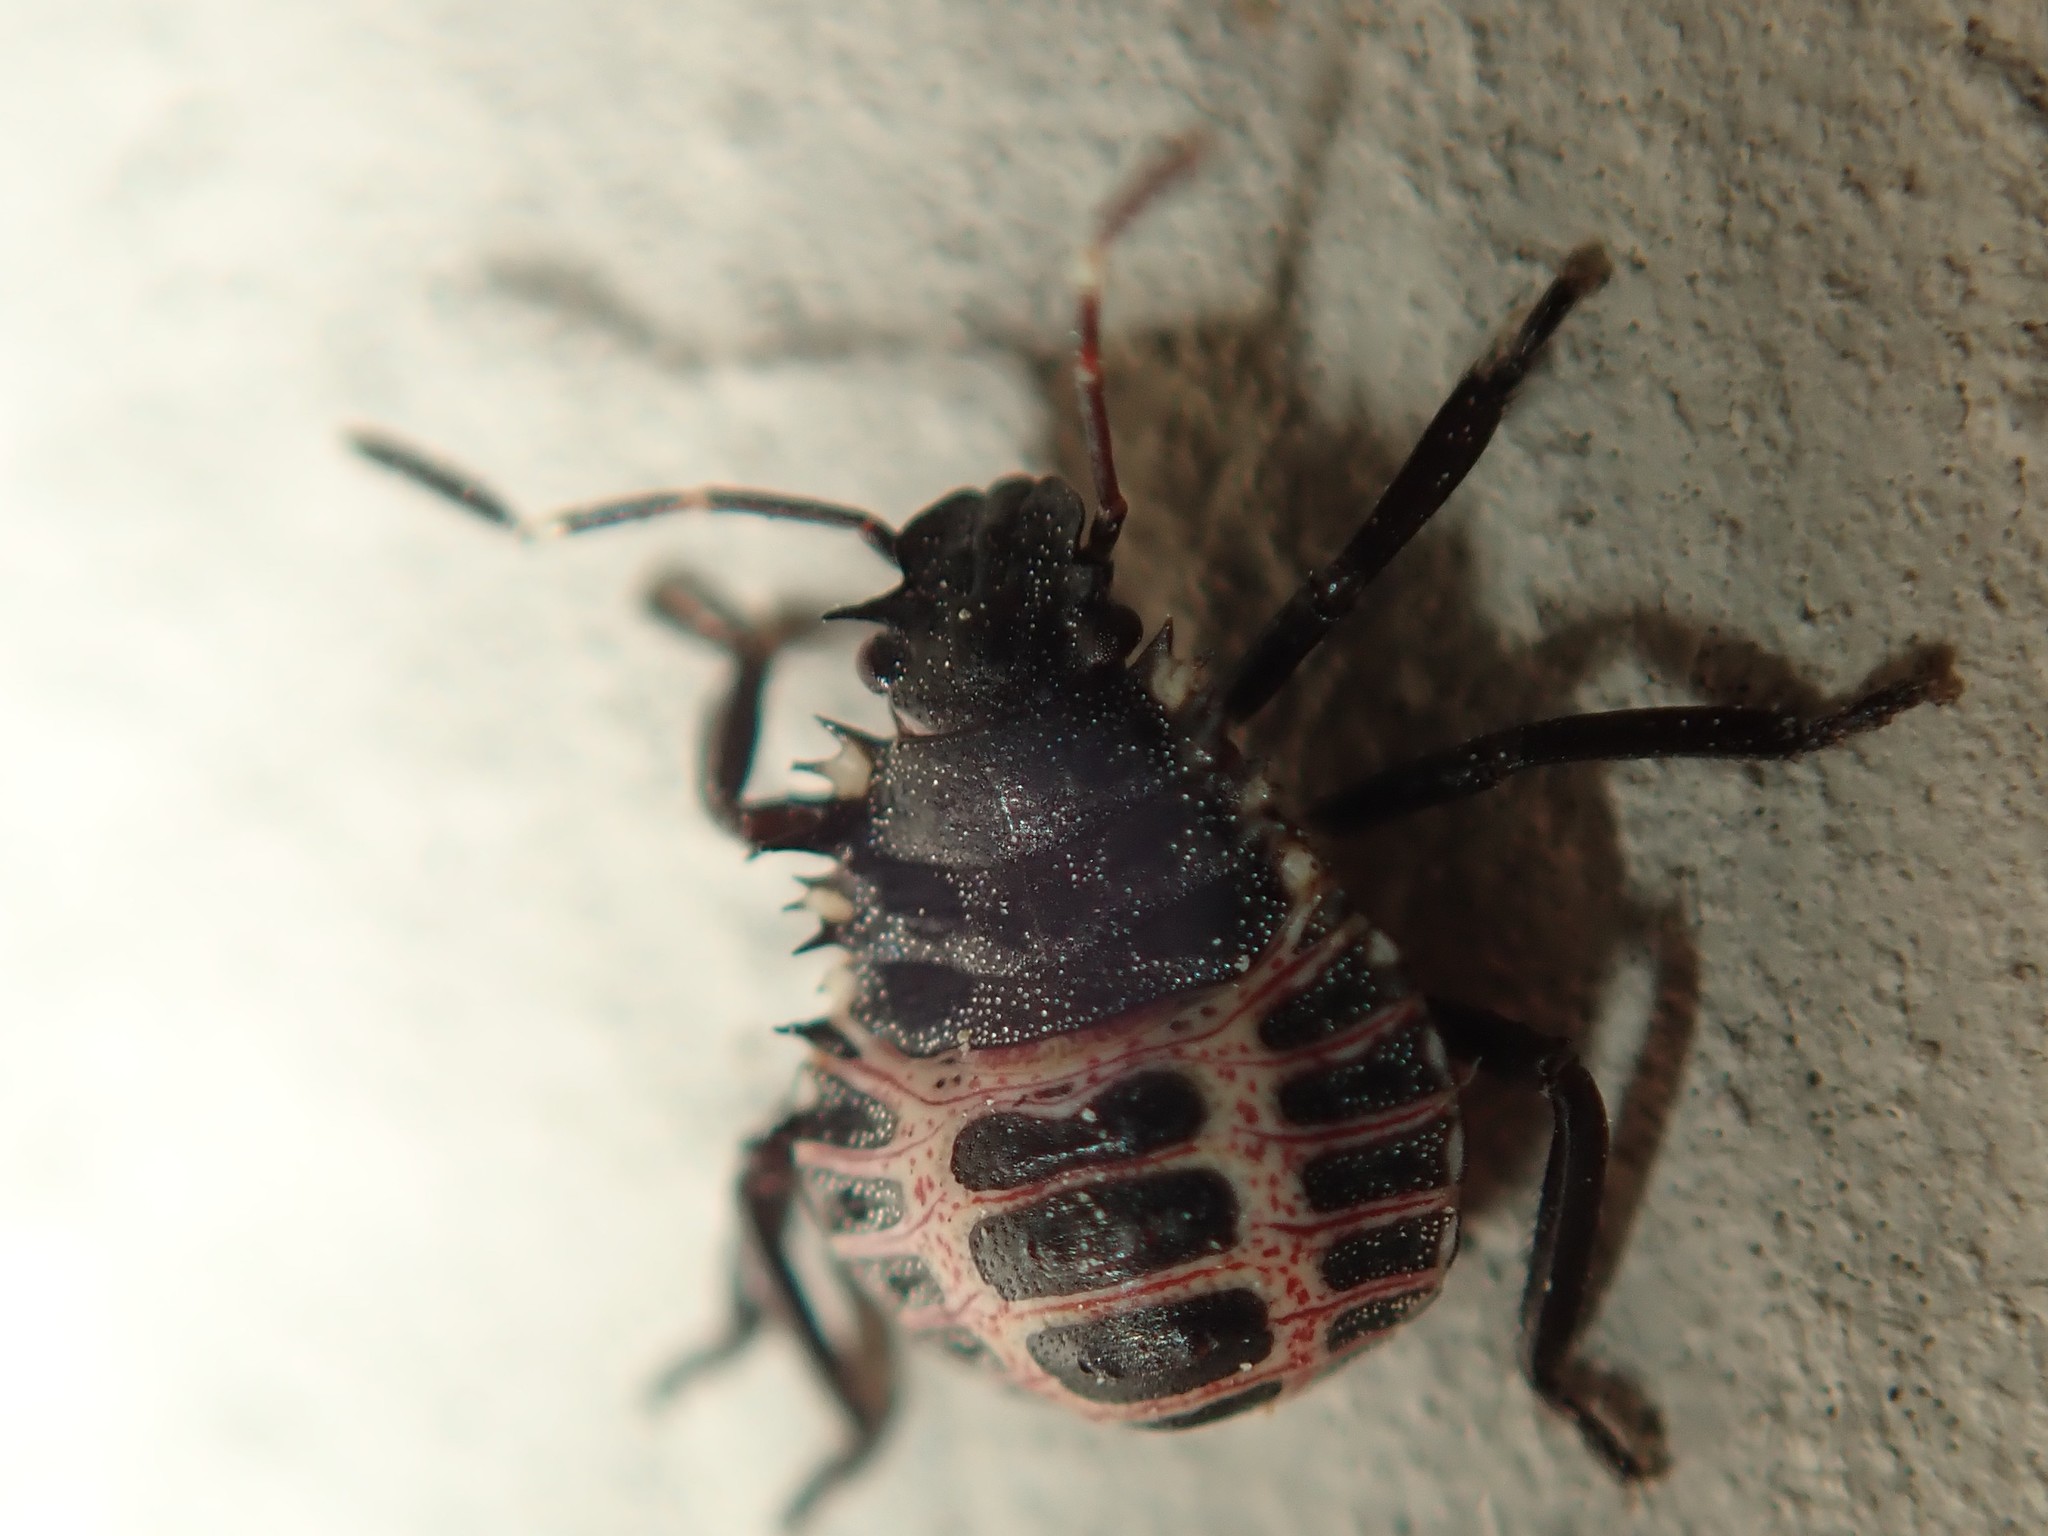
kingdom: Animalia
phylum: Arthropoda
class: Insecta
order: Hemiptera
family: Pentatomidae
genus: Halyomorpha
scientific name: Halyomorpha halys
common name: Brown marmorated stink bug
